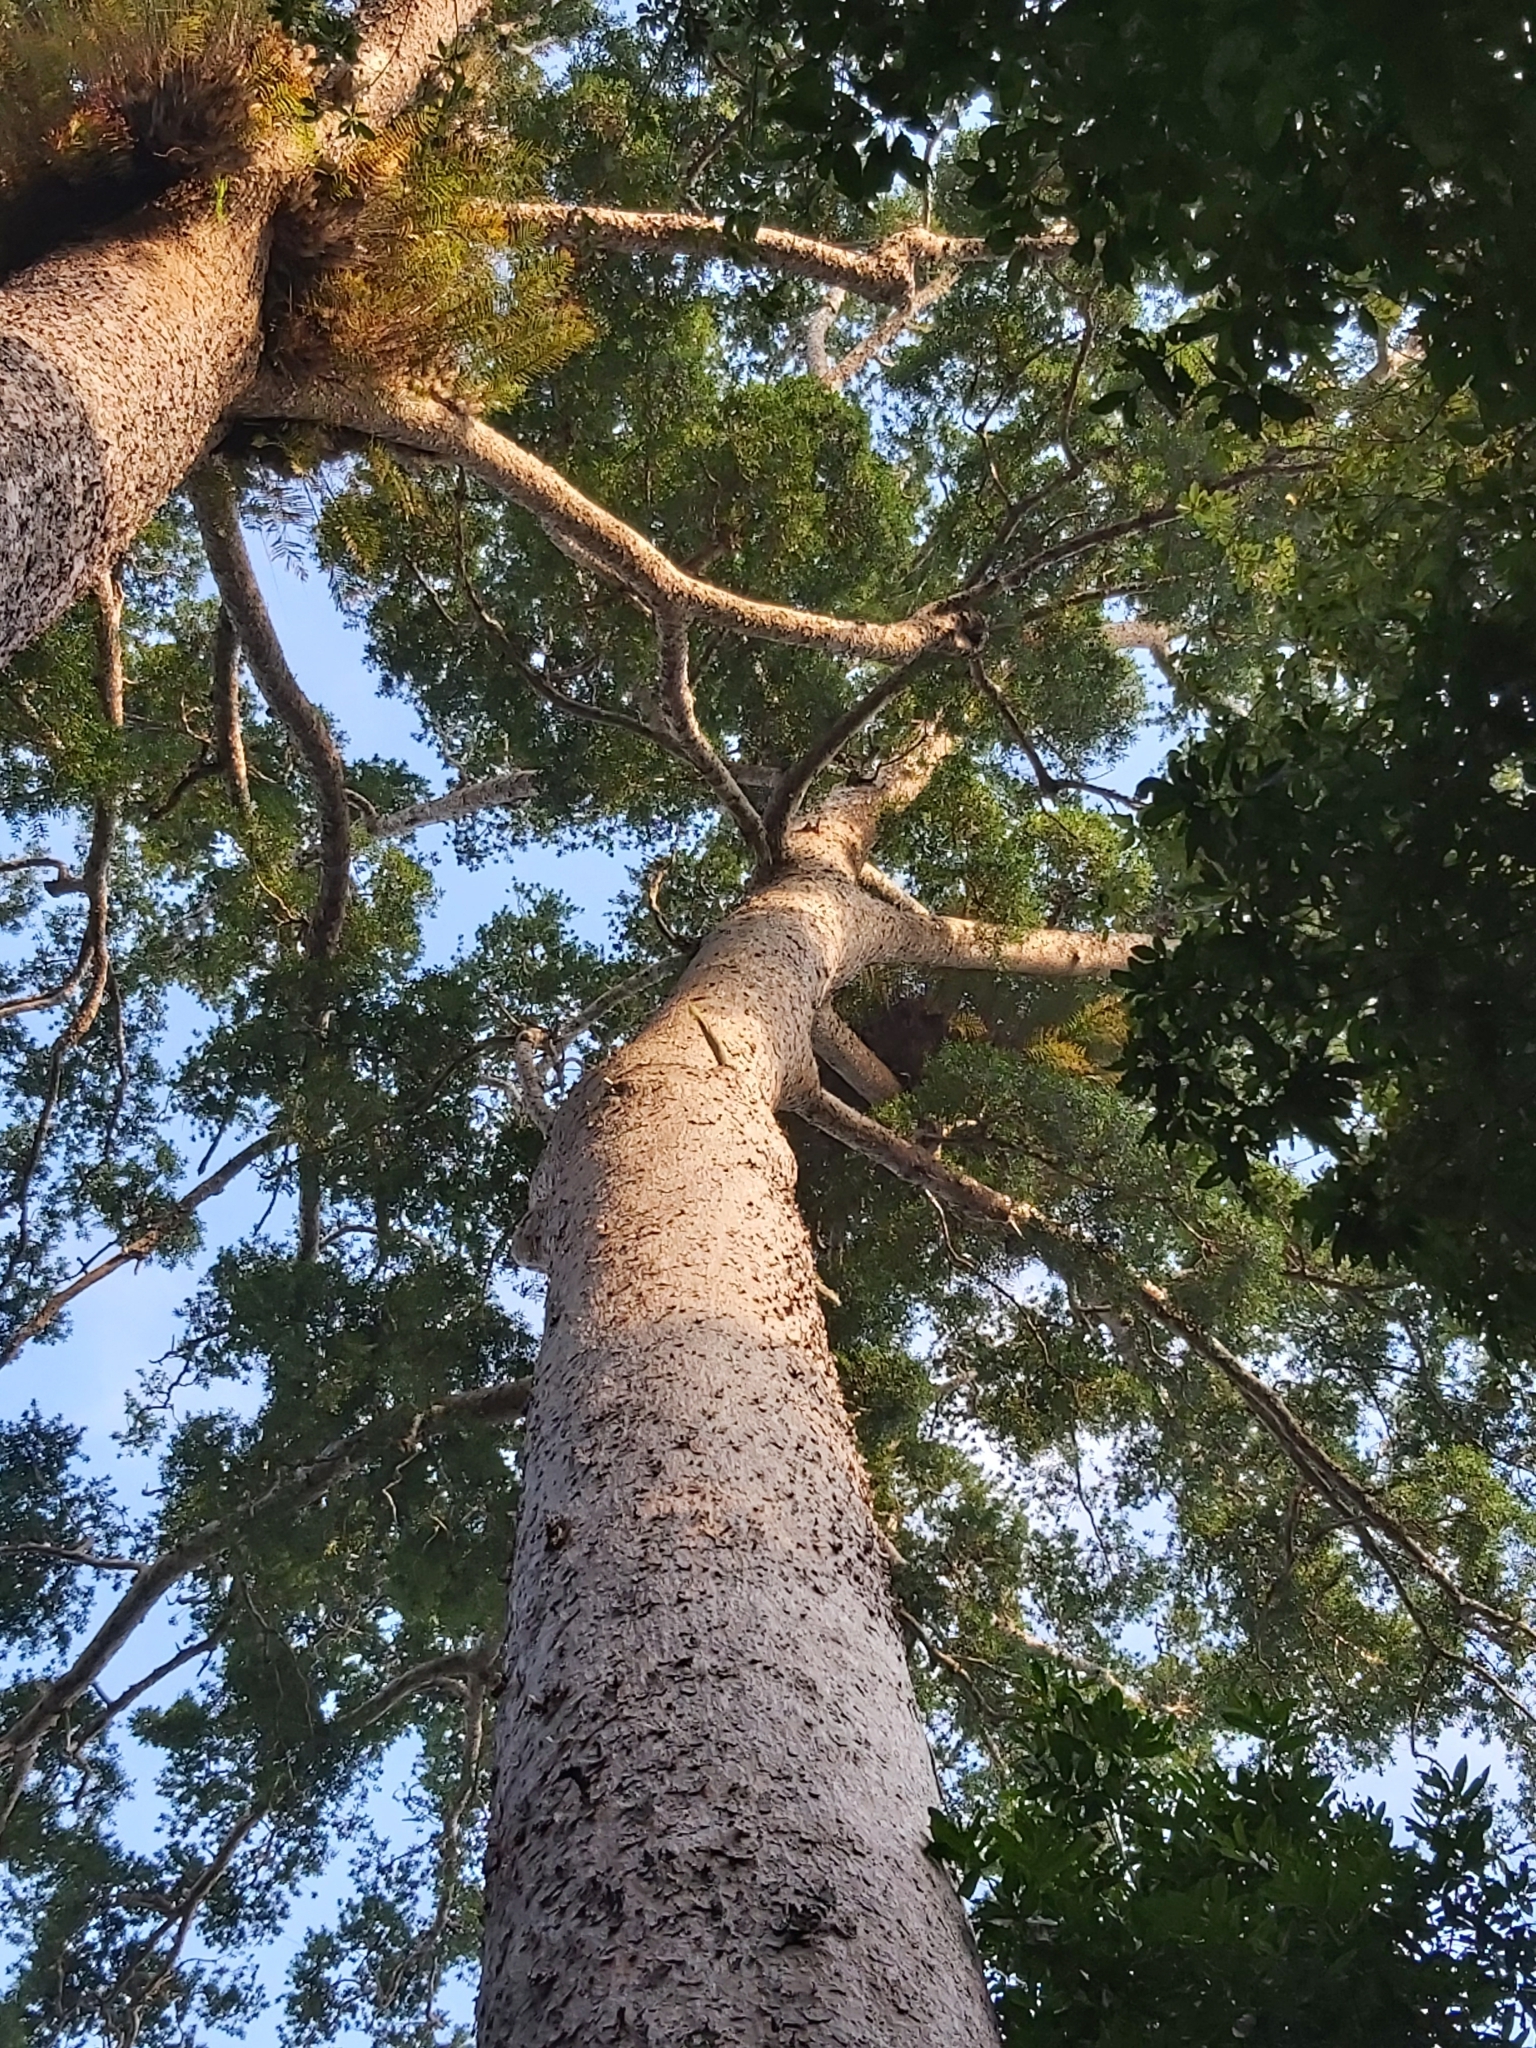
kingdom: Plantae
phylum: Tracheophyta
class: Pinopsida
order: Pinales
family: Araucariaceae
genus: Agathis
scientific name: Agathis microstachya
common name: Bull kauri
